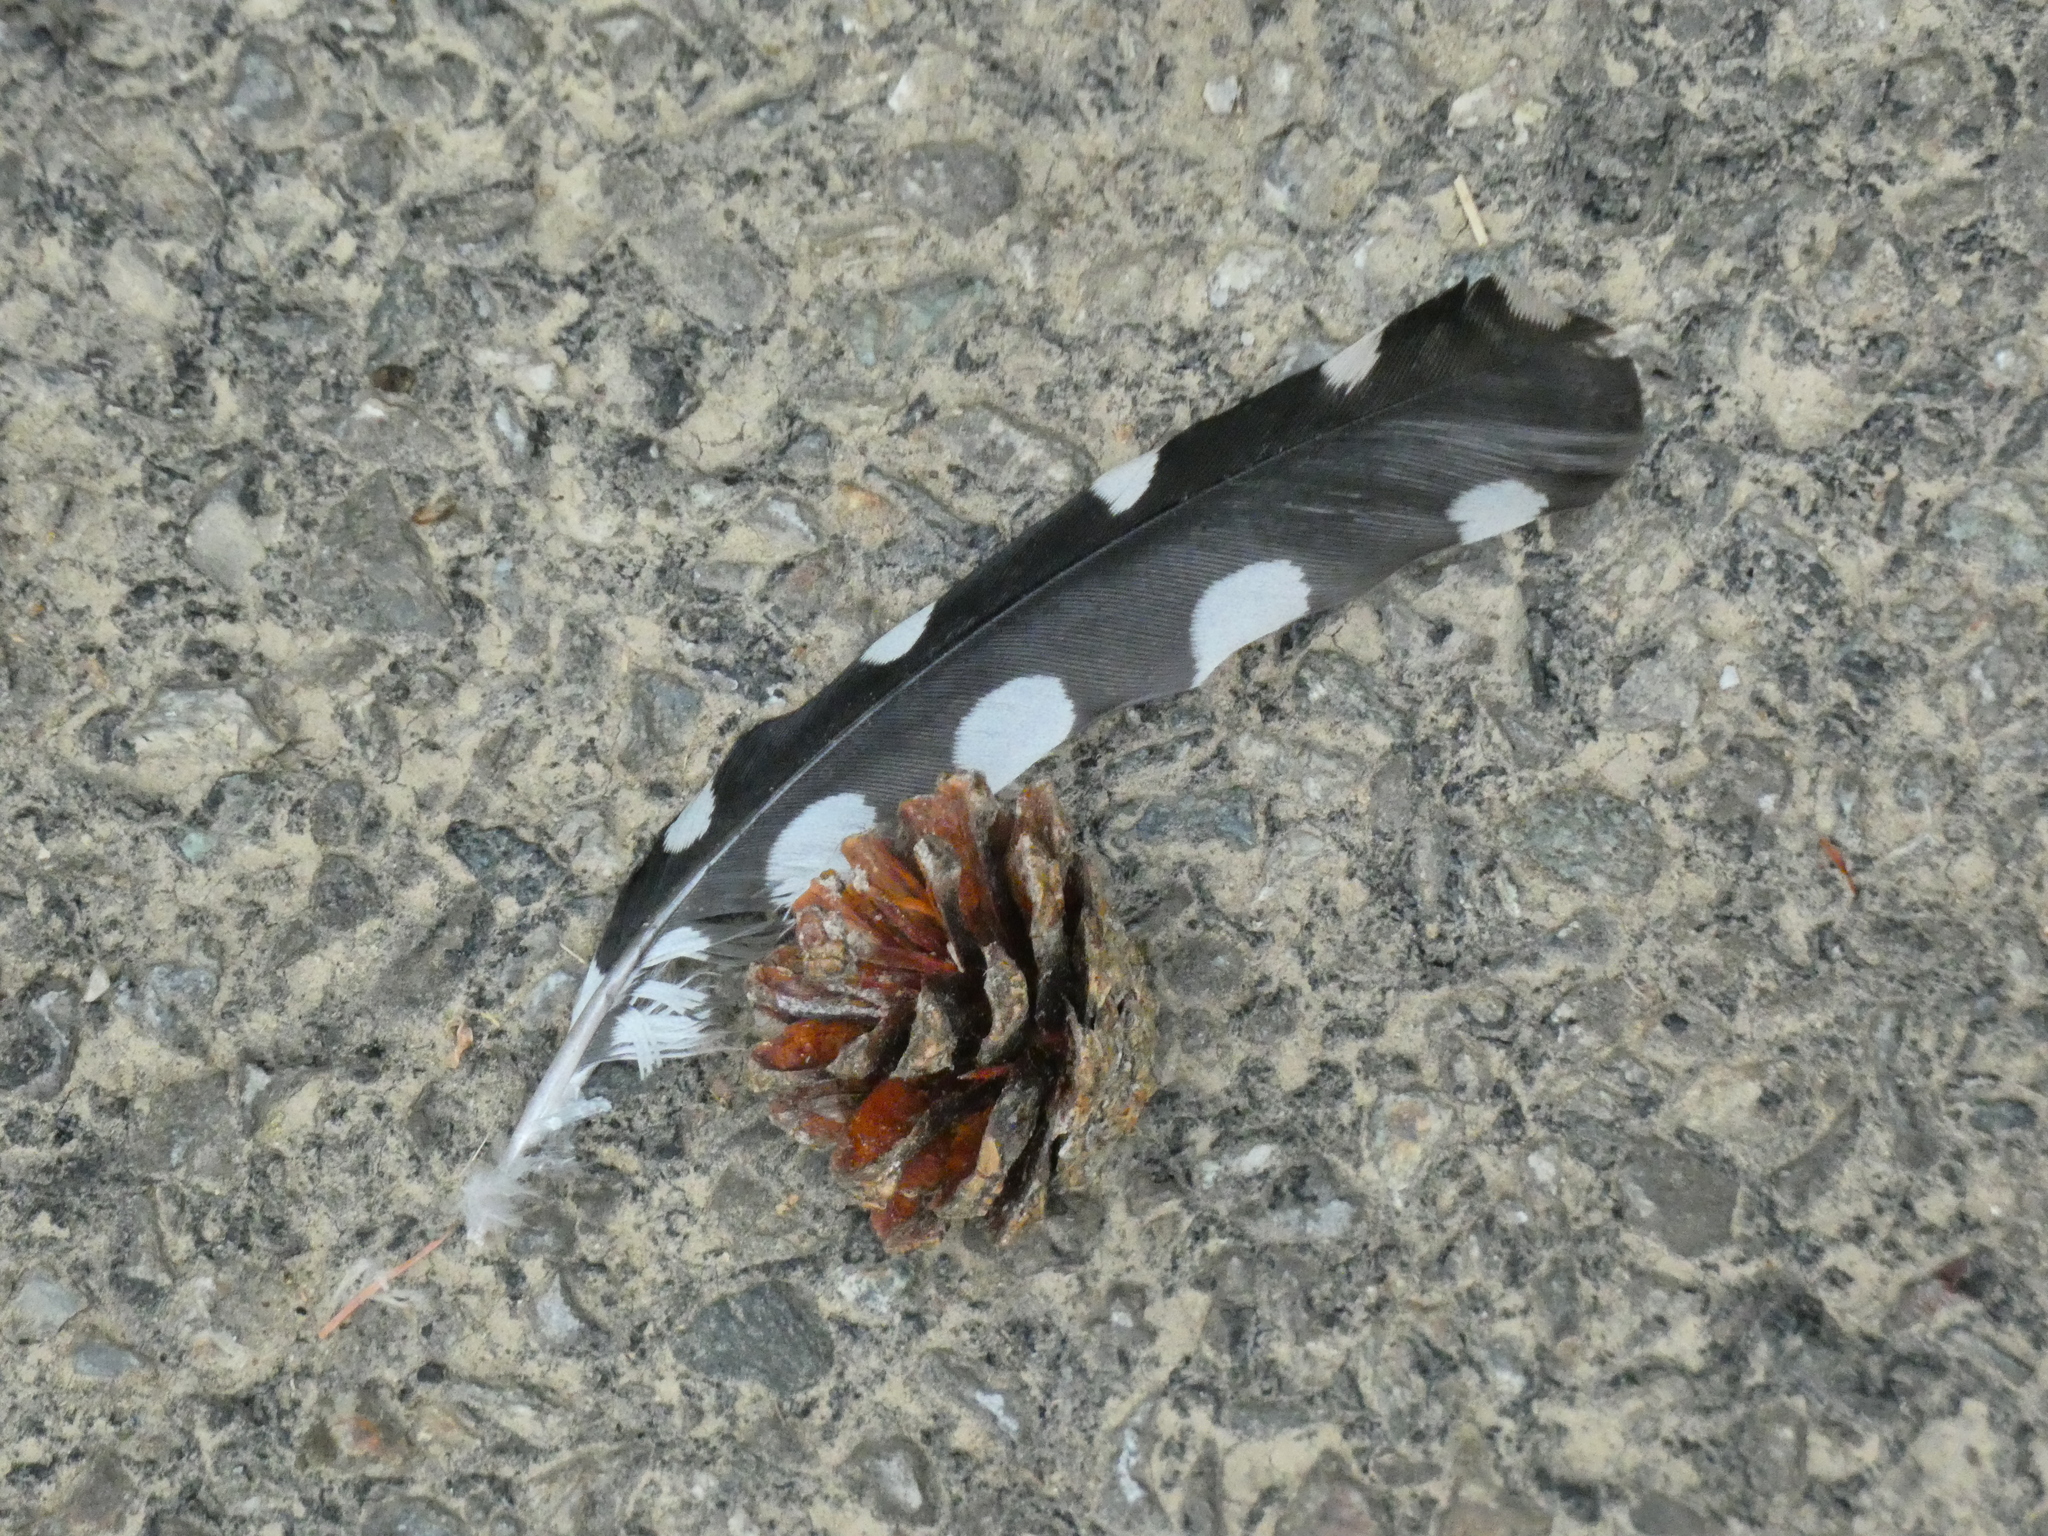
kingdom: Animalia
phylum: Chordata
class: Aves
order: Piciformes
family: Picidae
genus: Dendrocopos
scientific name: Dendrocopos major
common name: Great spotted woodpecker
